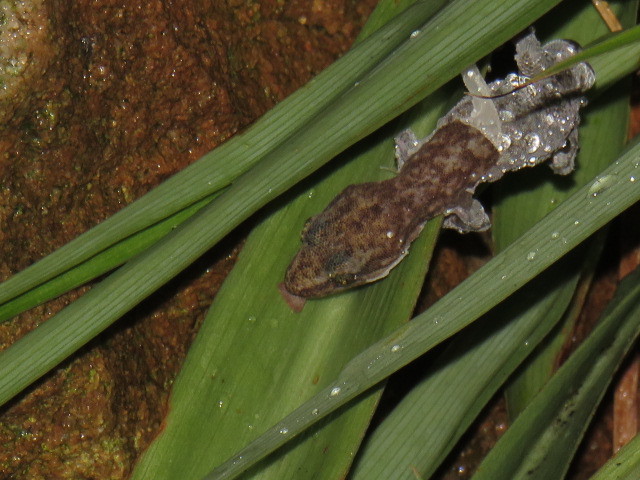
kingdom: Animalia
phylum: Chordata
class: Squamata
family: Gekkonidae
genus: Afrogecko
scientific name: Afrogecko porphyreus
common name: Marbled leaf-toed gecko
